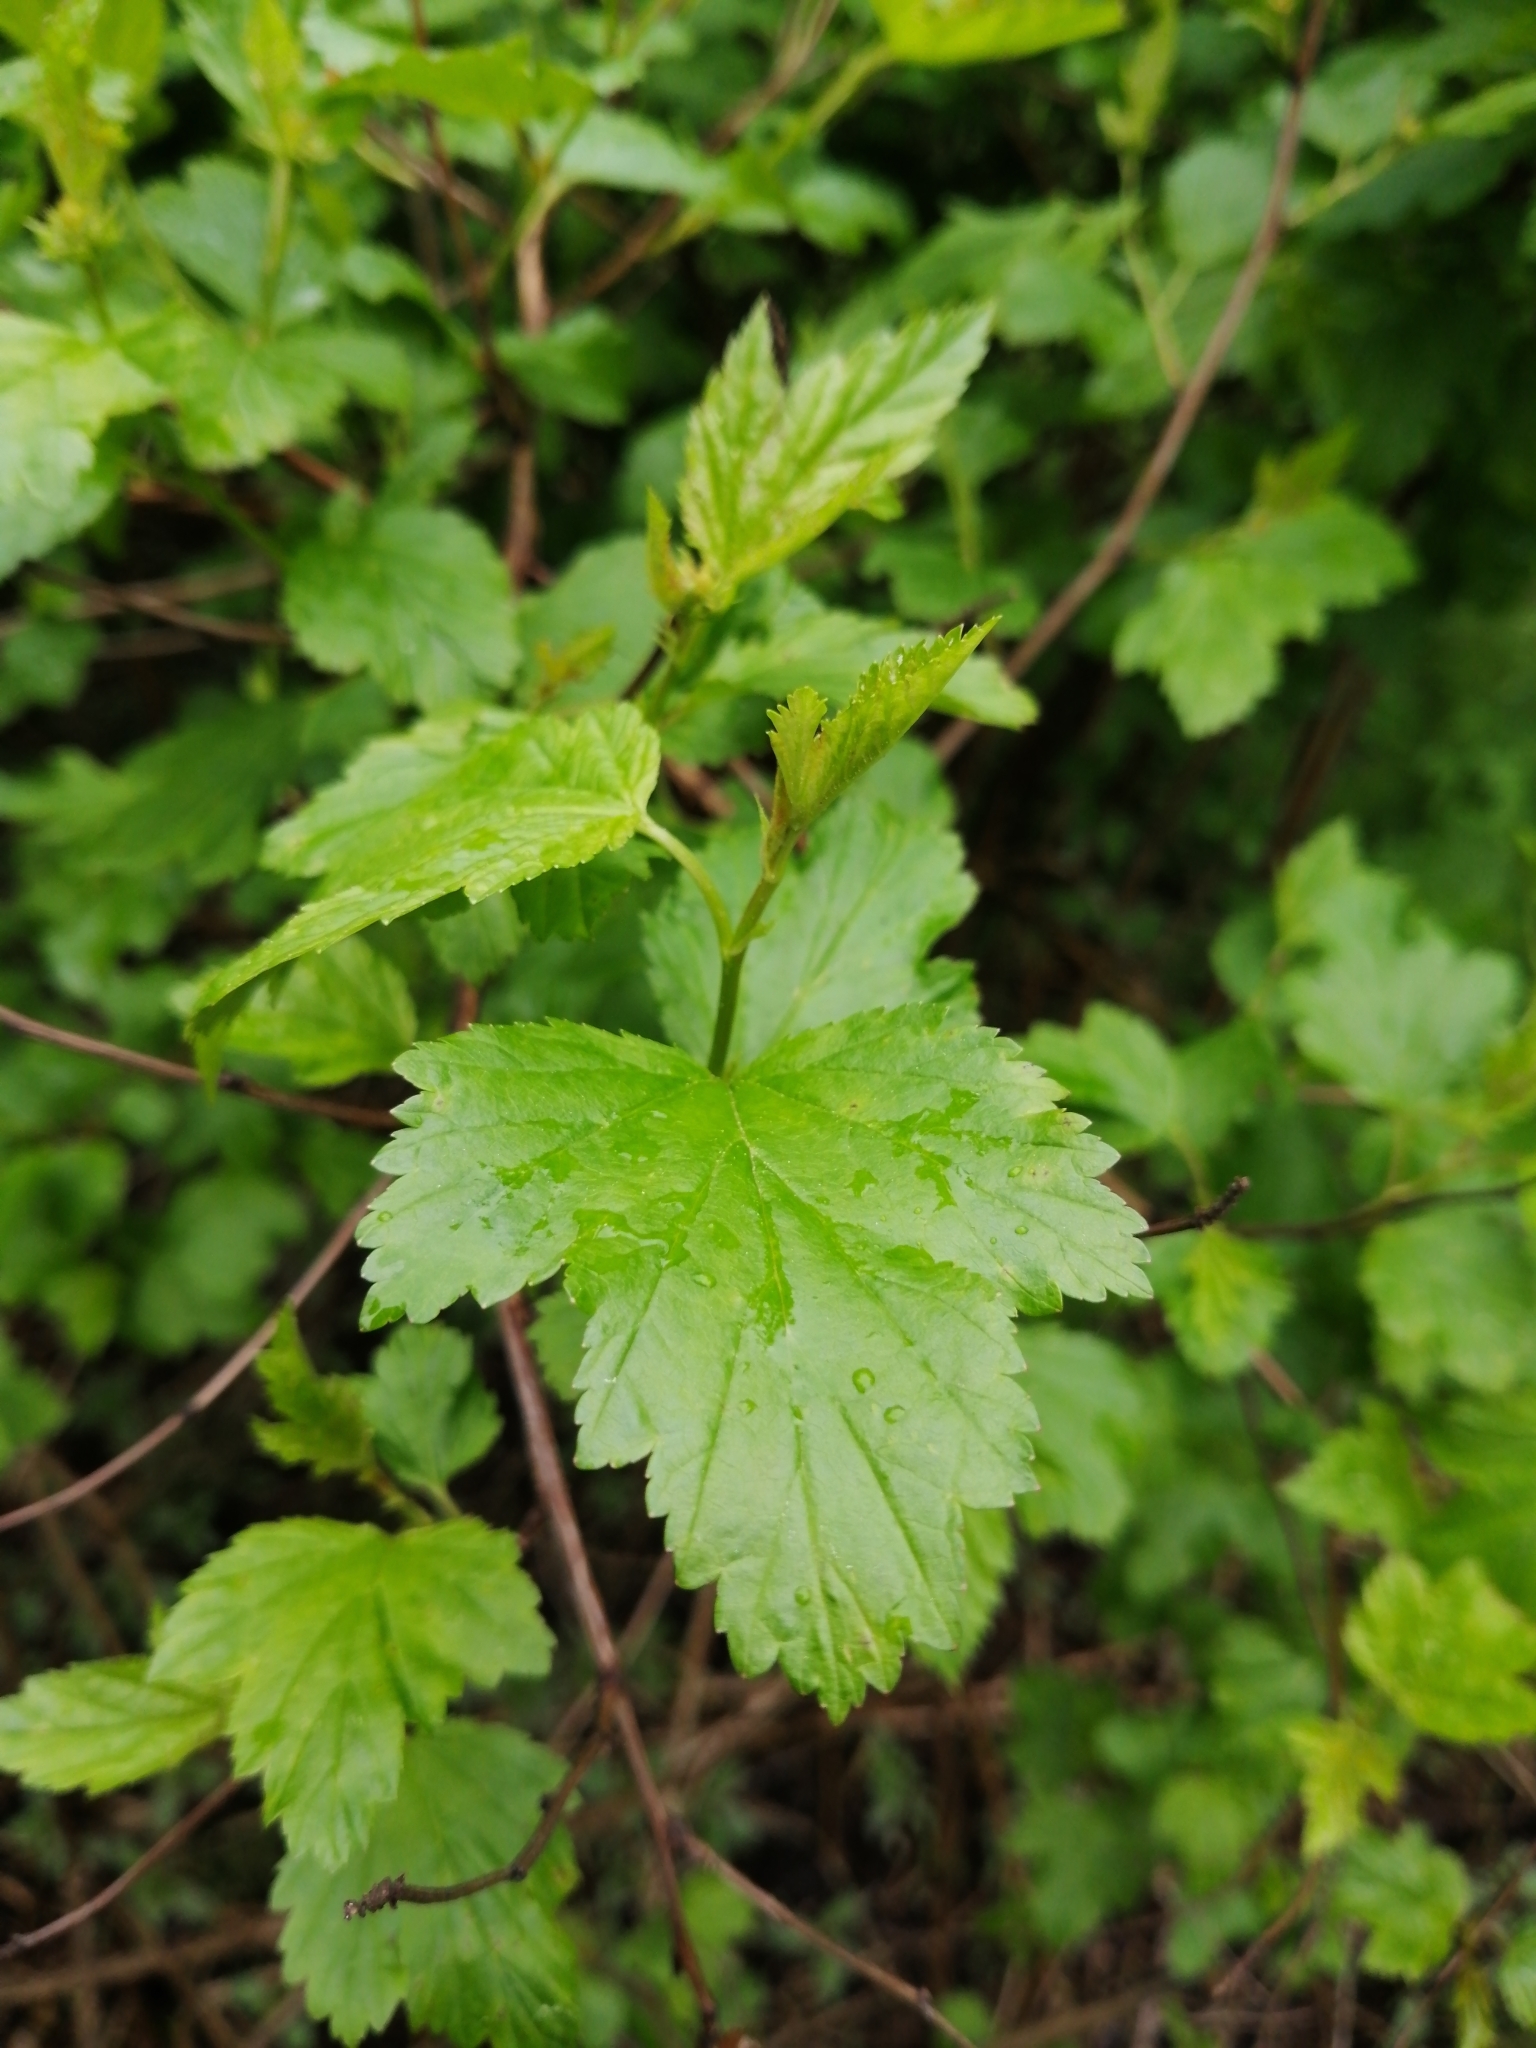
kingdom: Plantae
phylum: Tracheophyta
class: Magnoliopsida
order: Rosales
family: Rosaceae
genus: Physocarpus
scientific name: Physocarpus opulifolius
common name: Ninebark
